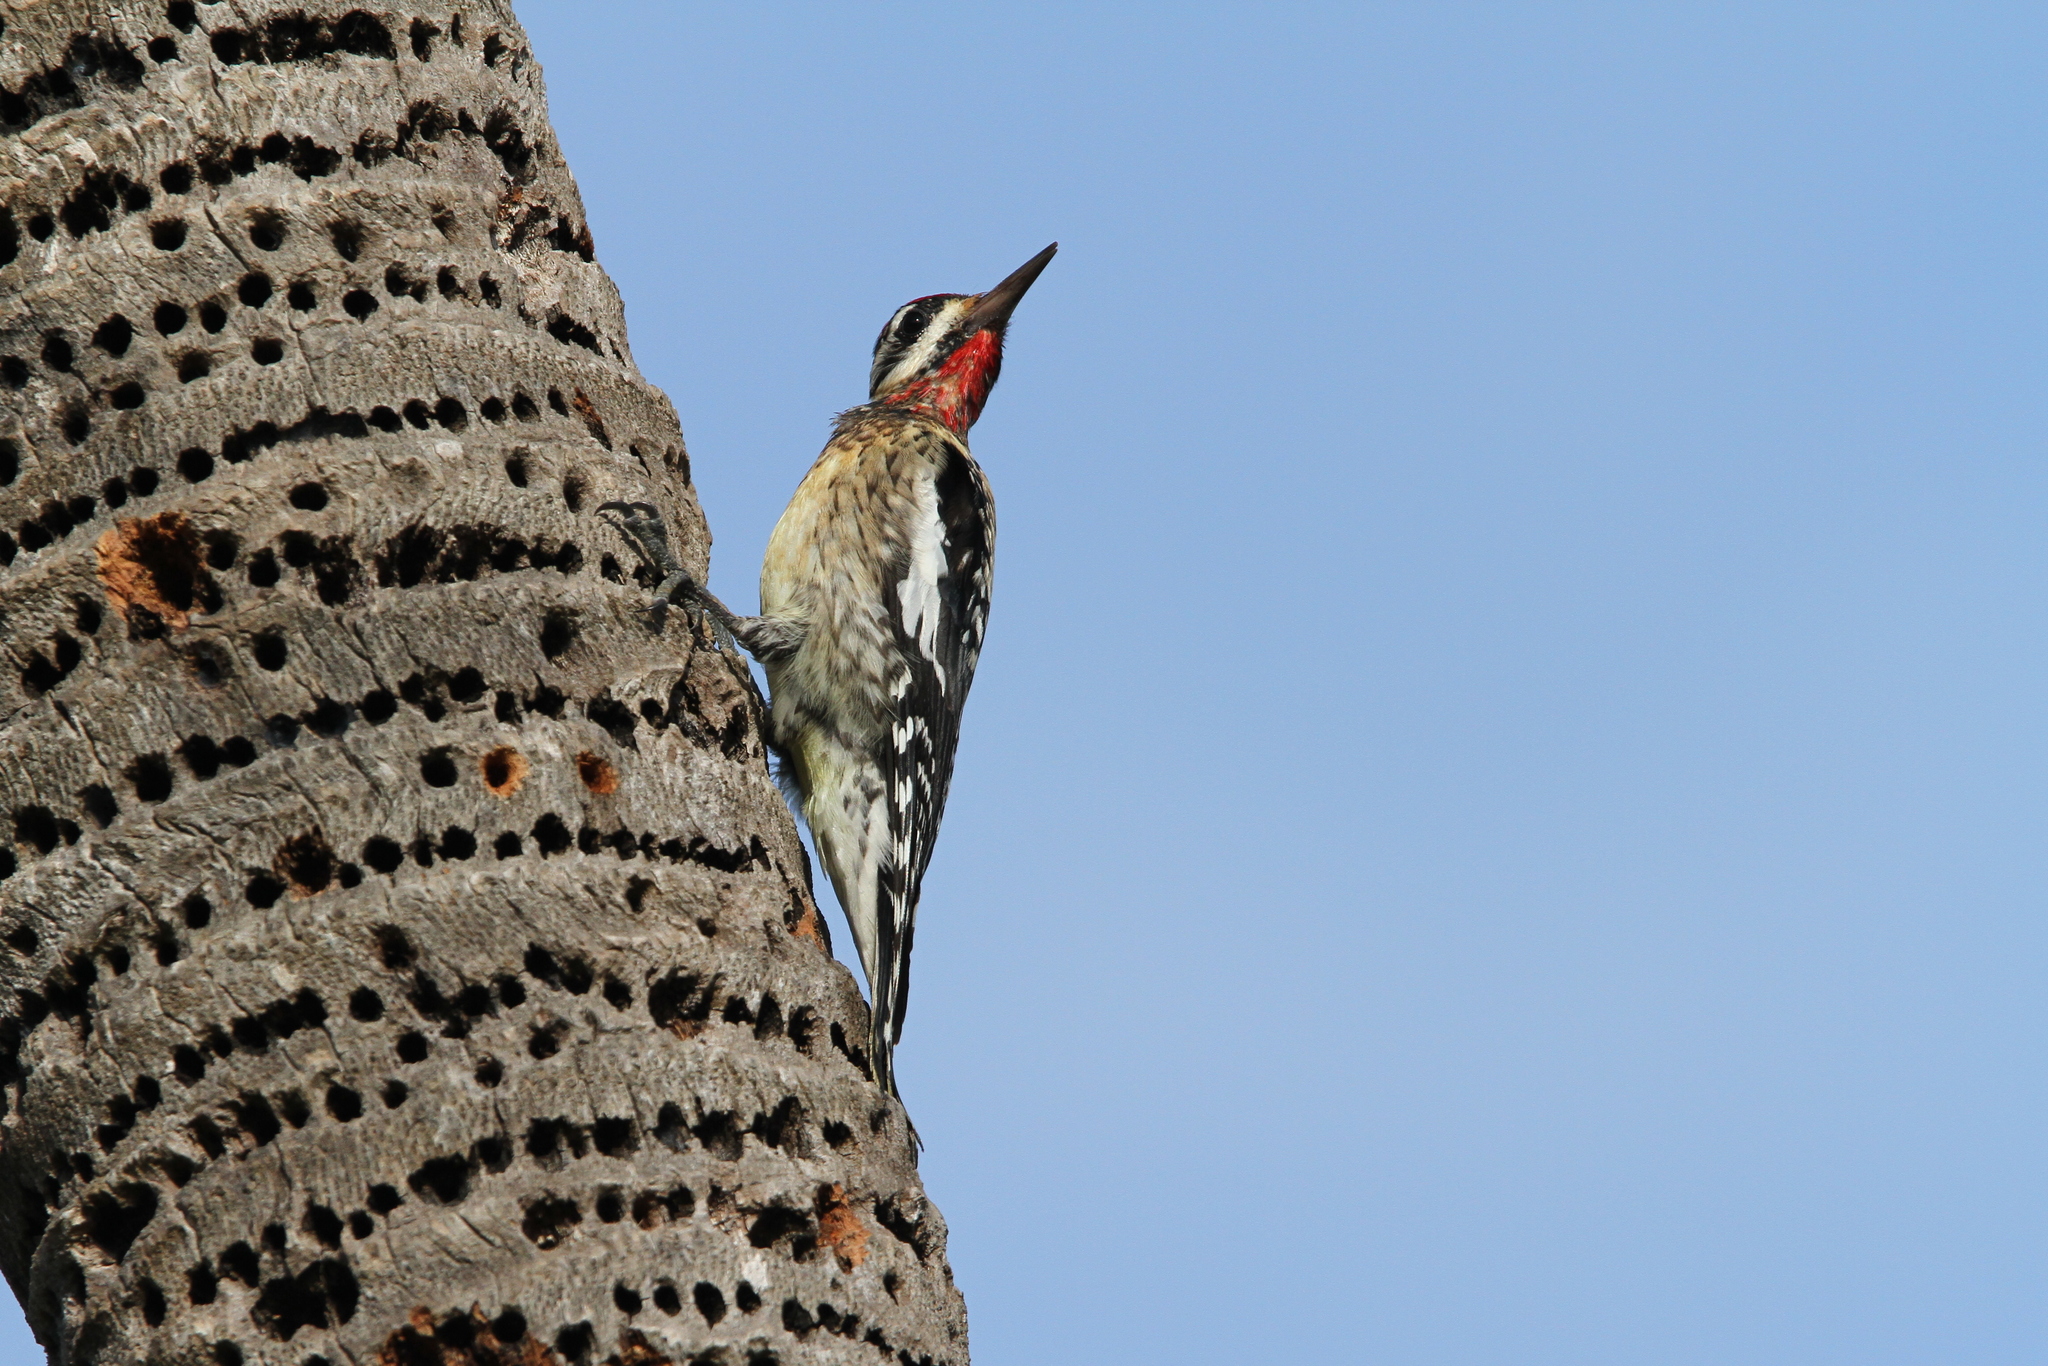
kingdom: Animalia
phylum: Chordata
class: Aves
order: Piciformes
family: Picidae
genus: Sphyrapicus
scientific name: Sphyrapicus varius
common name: Yellow-bellied sapsucker
